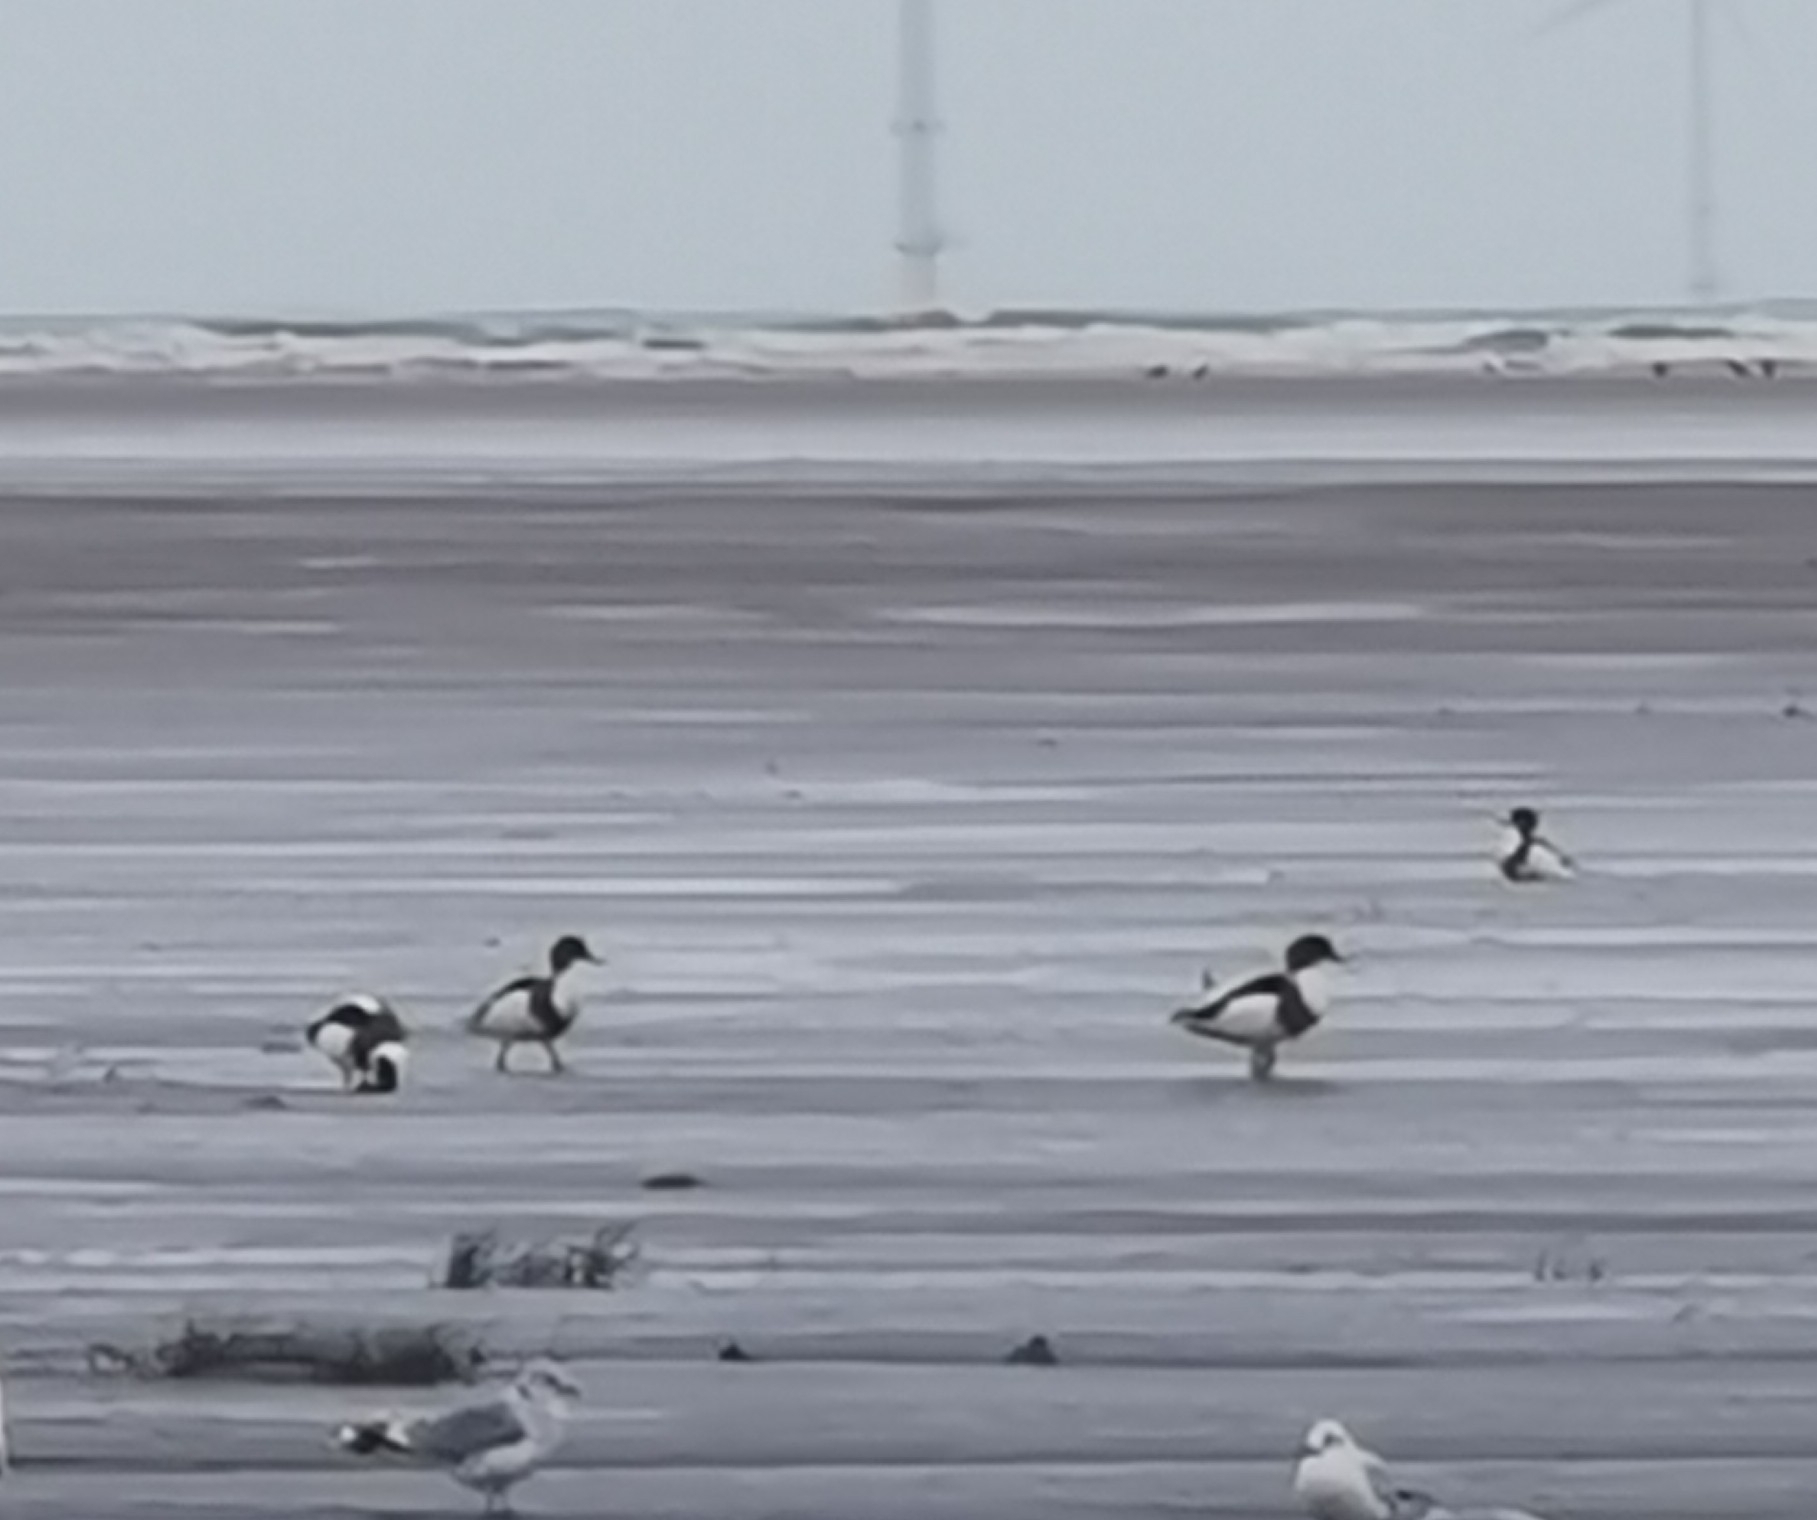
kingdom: Animalia
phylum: Chordata
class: Aves
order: Anseriformes
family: Anatidae
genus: Tadorna
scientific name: Tadorna tadorna
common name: Common shelduck
